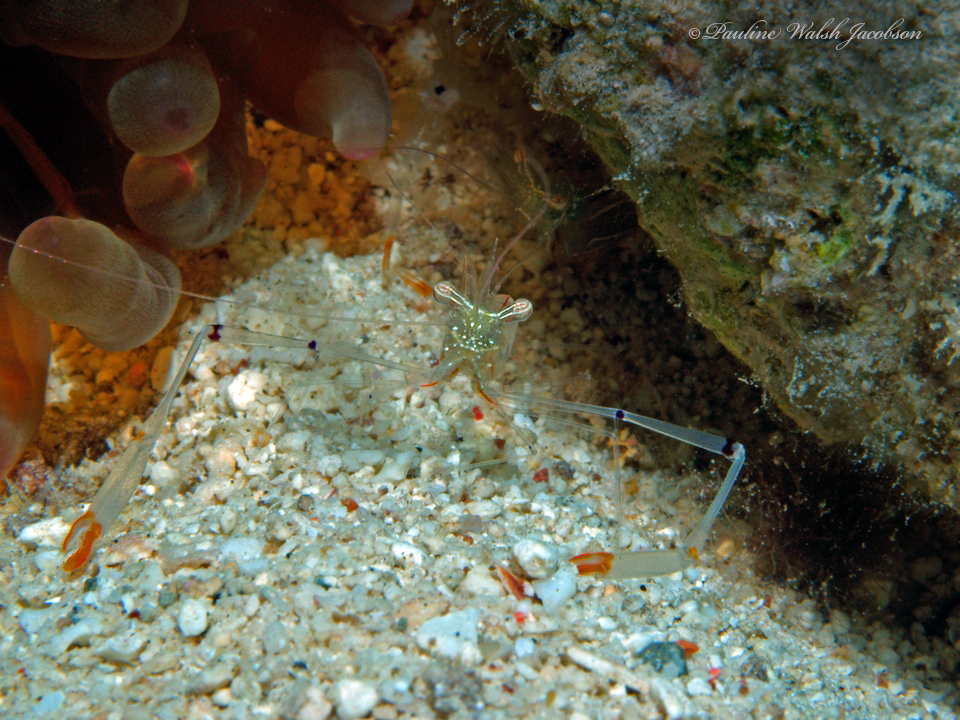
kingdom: Animalia
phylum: Arthropoda
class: Malacostraca
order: Decapoda
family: Palaemonidae
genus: Cuapetes
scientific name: Cuapetes tenuipes
